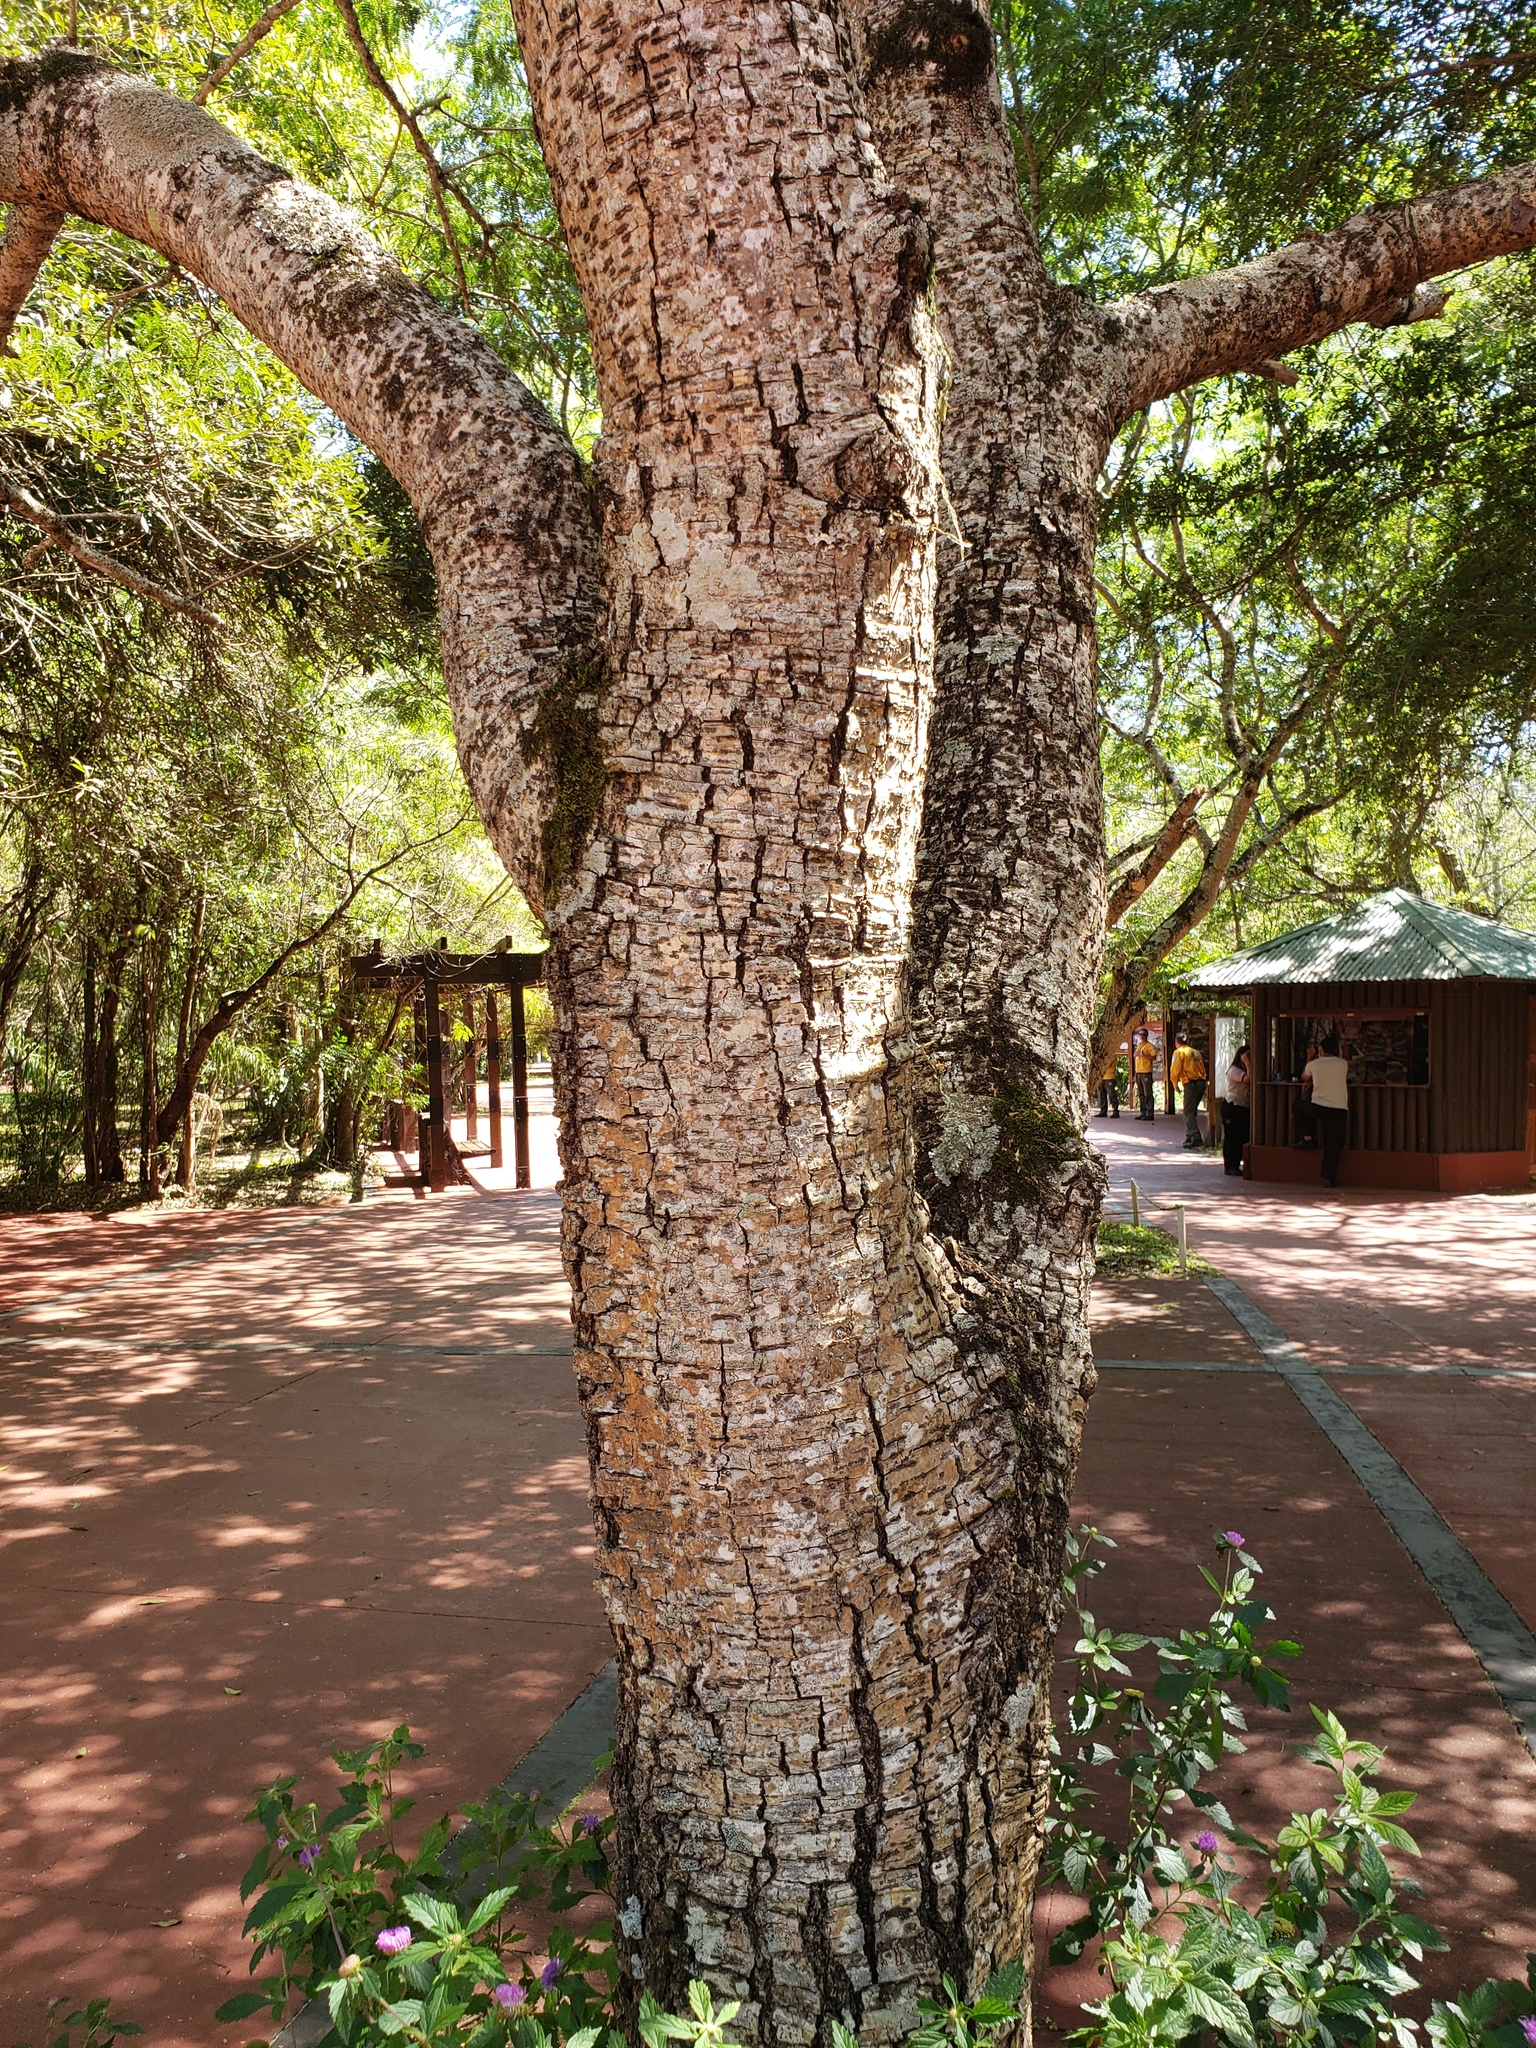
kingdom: Plantae
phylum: Tracheophyta
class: Magnoliopsida
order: Fabales
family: Fabaceae
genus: Enterolobium
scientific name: Enterolobium contortisiliquum
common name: Pacara earpod tree
